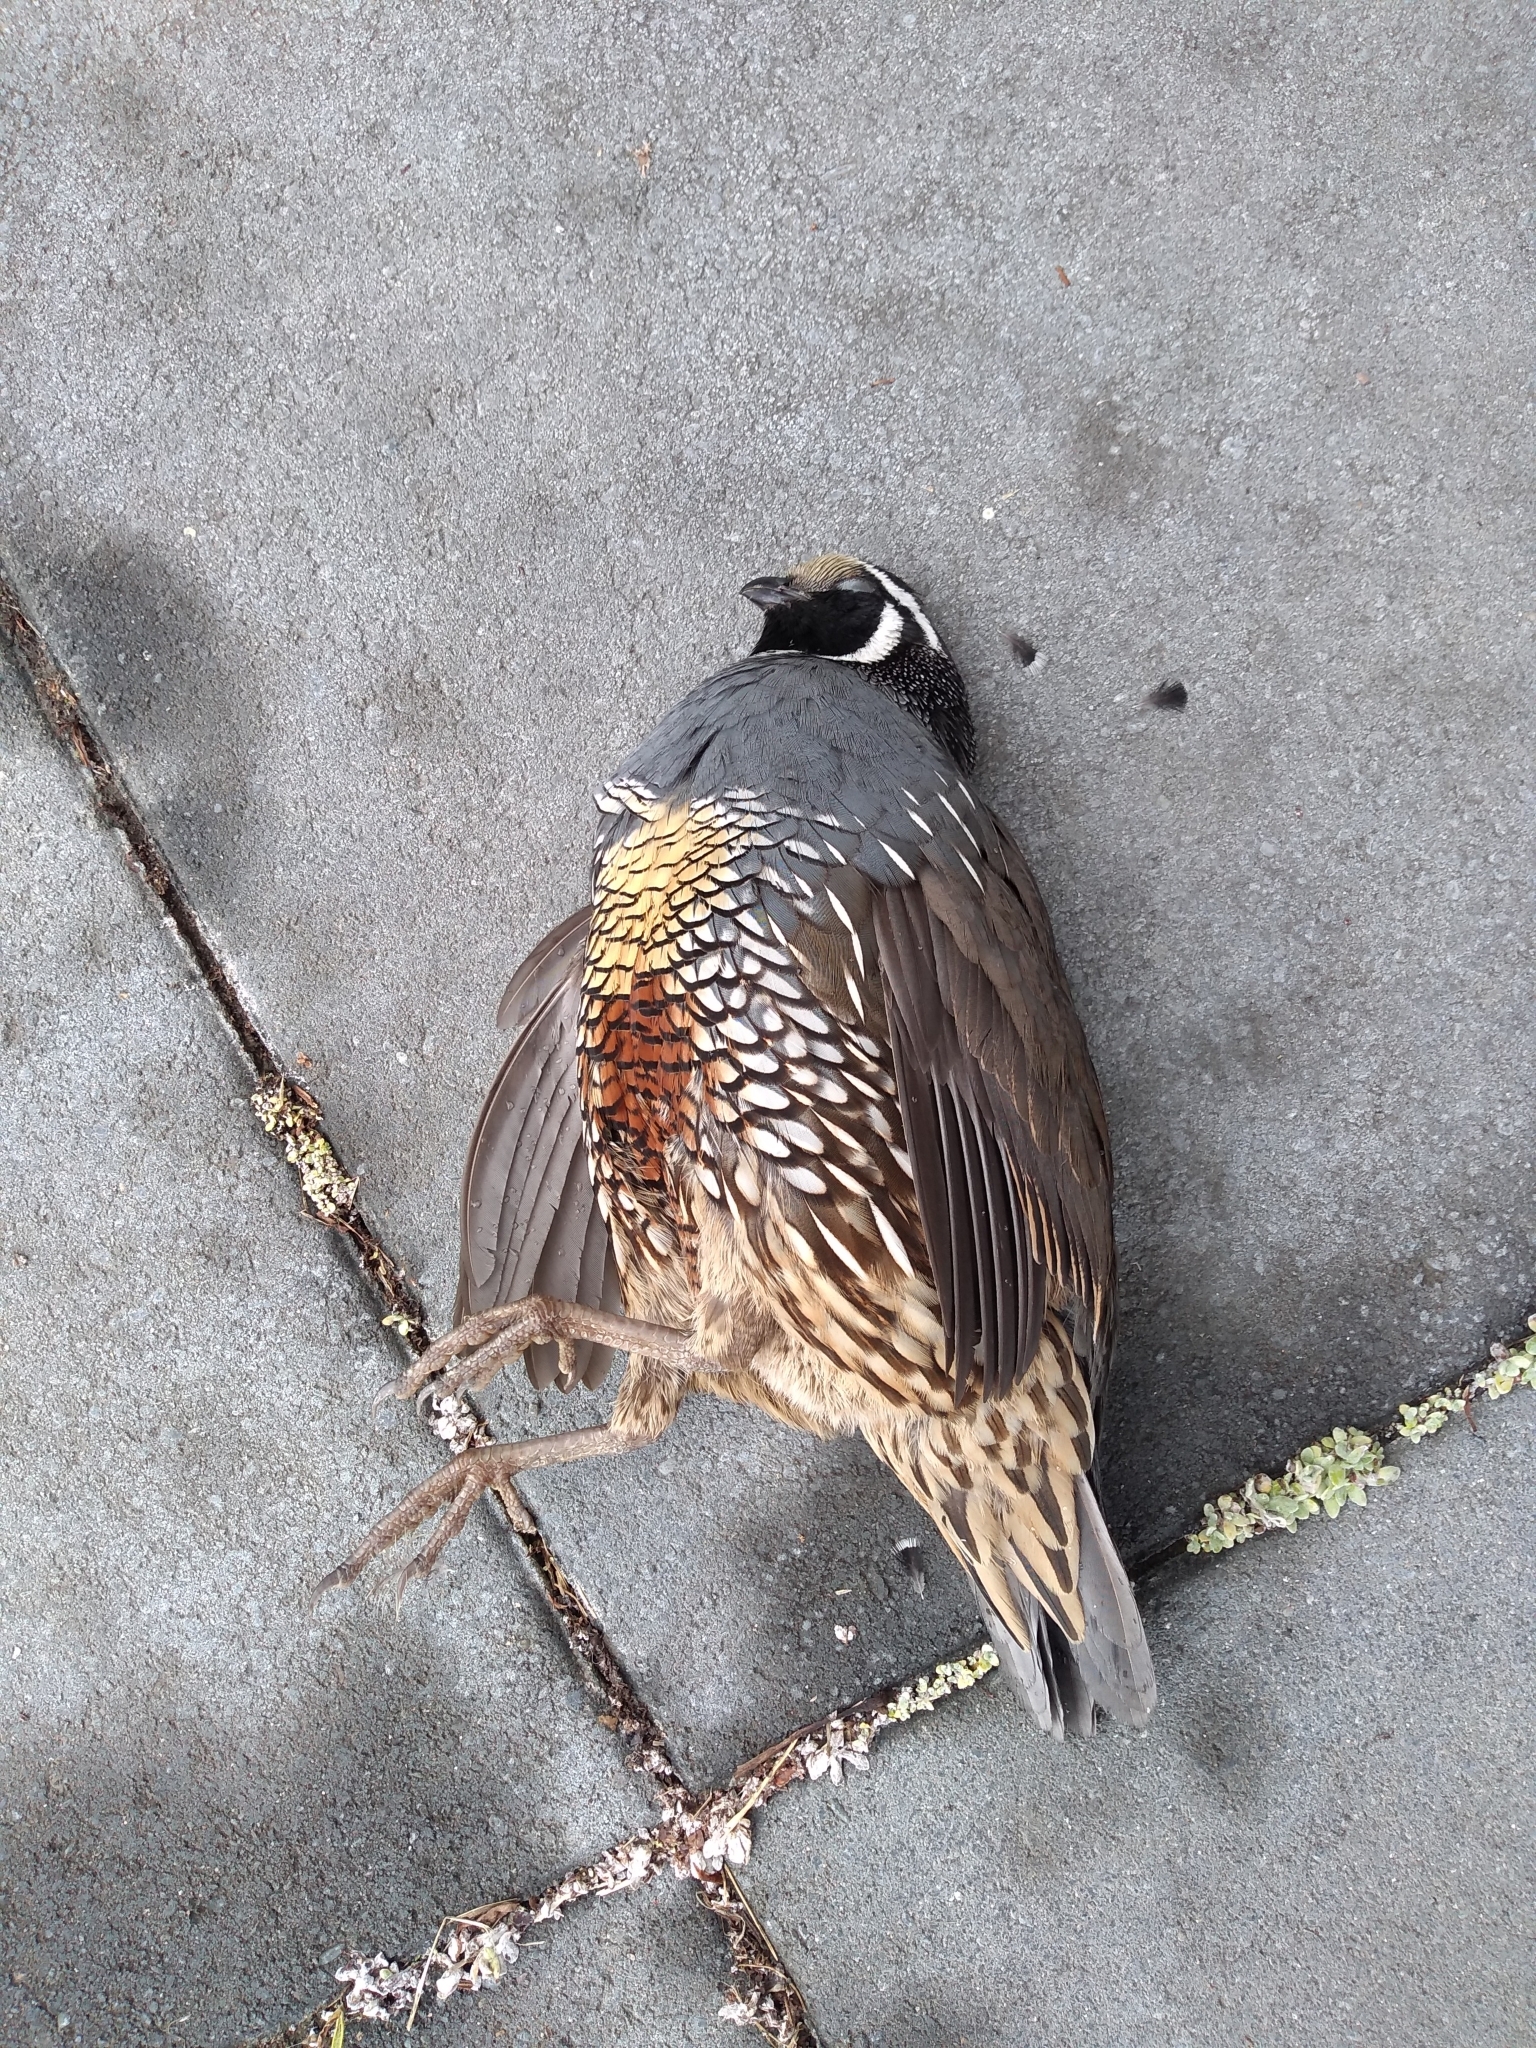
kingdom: Animalia
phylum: Chordata
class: Aves
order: Galliformes
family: Odontophoridae
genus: Callipepla
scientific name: Callipepla californica
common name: California quail
